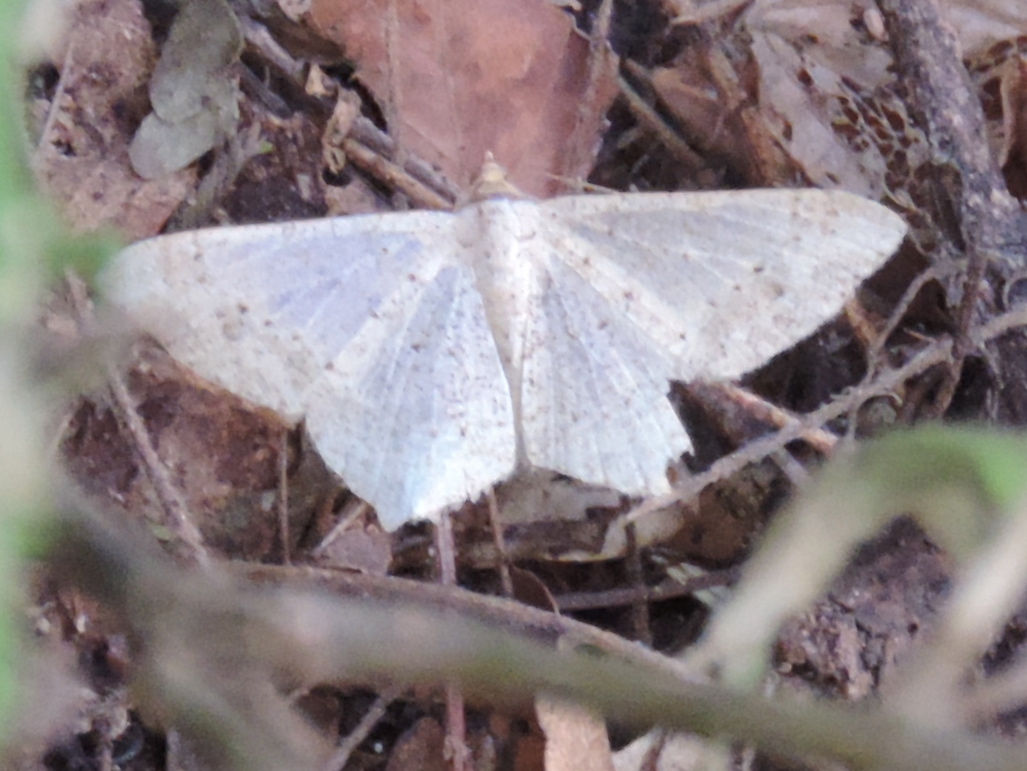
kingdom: Animalia
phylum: Arthropoda
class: Insecta
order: Lepidoptera
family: Geometridae
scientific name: Geometridae
